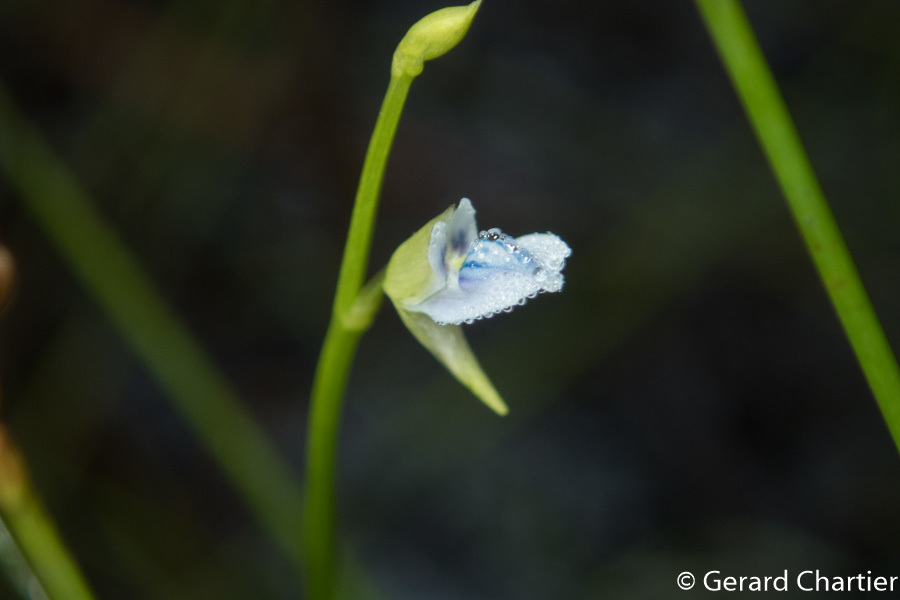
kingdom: Plantae
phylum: Tracheophyta
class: Magnoliopsida
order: Lamiales
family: Lentibulariaceae
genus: Utricularia
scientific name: Utricularia uliginosa
